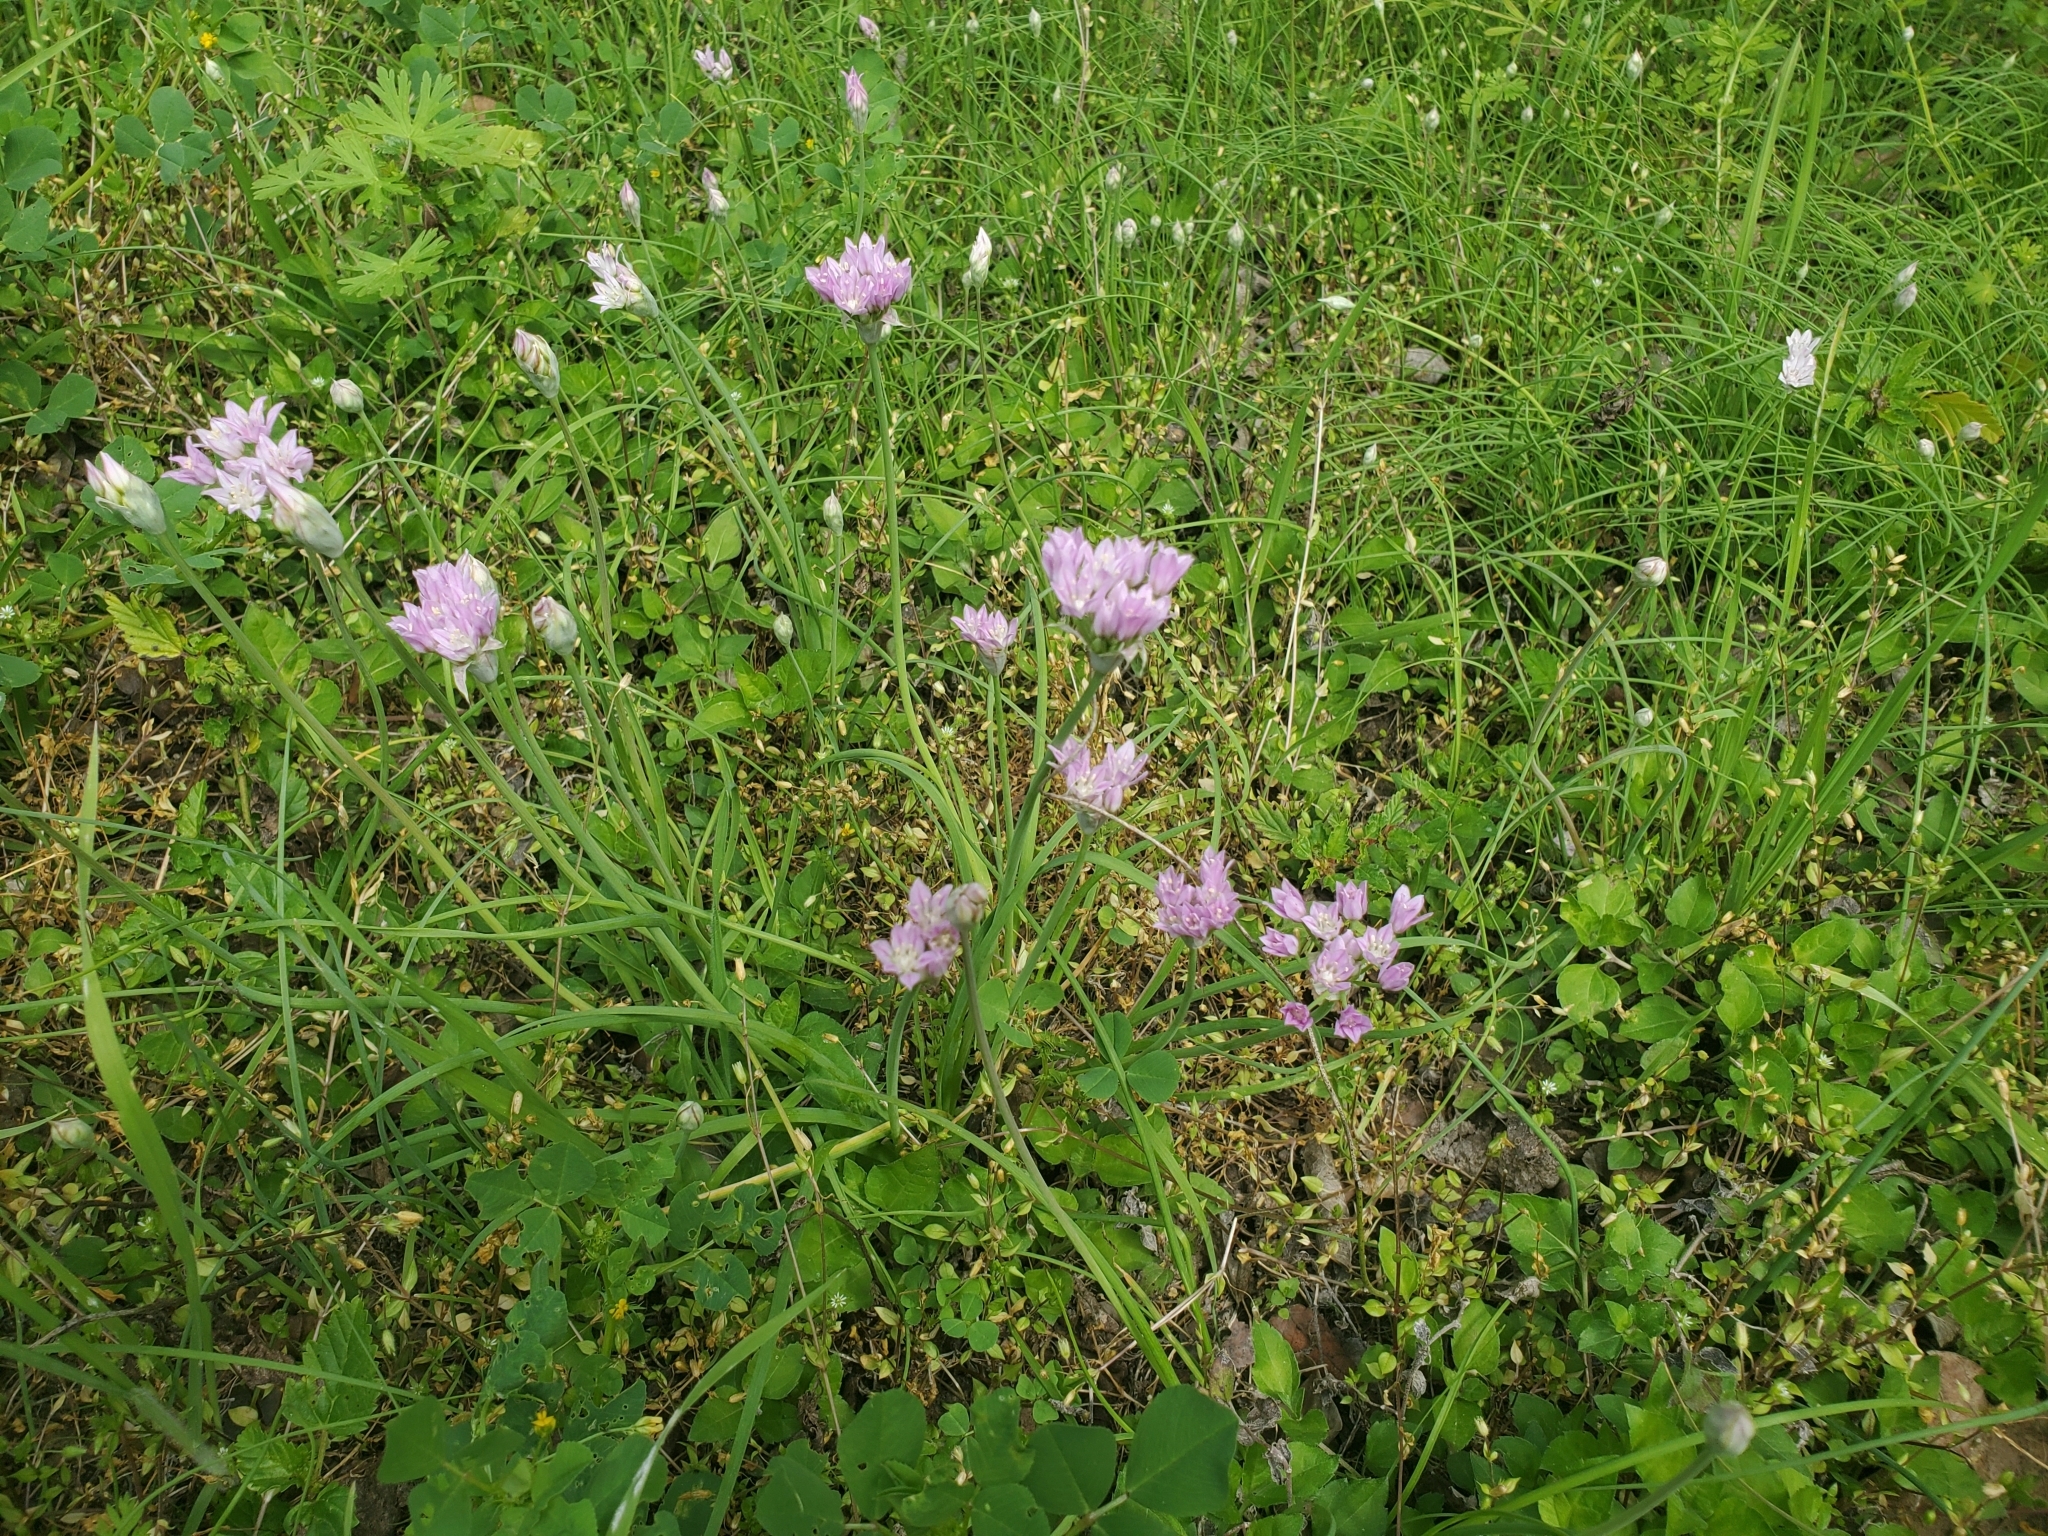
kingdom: Plantae
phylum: Tracheophyta
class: Liliopsida
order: Asparagales
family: Amaryllidaceae
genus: Allium
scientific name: Allium drummondii
